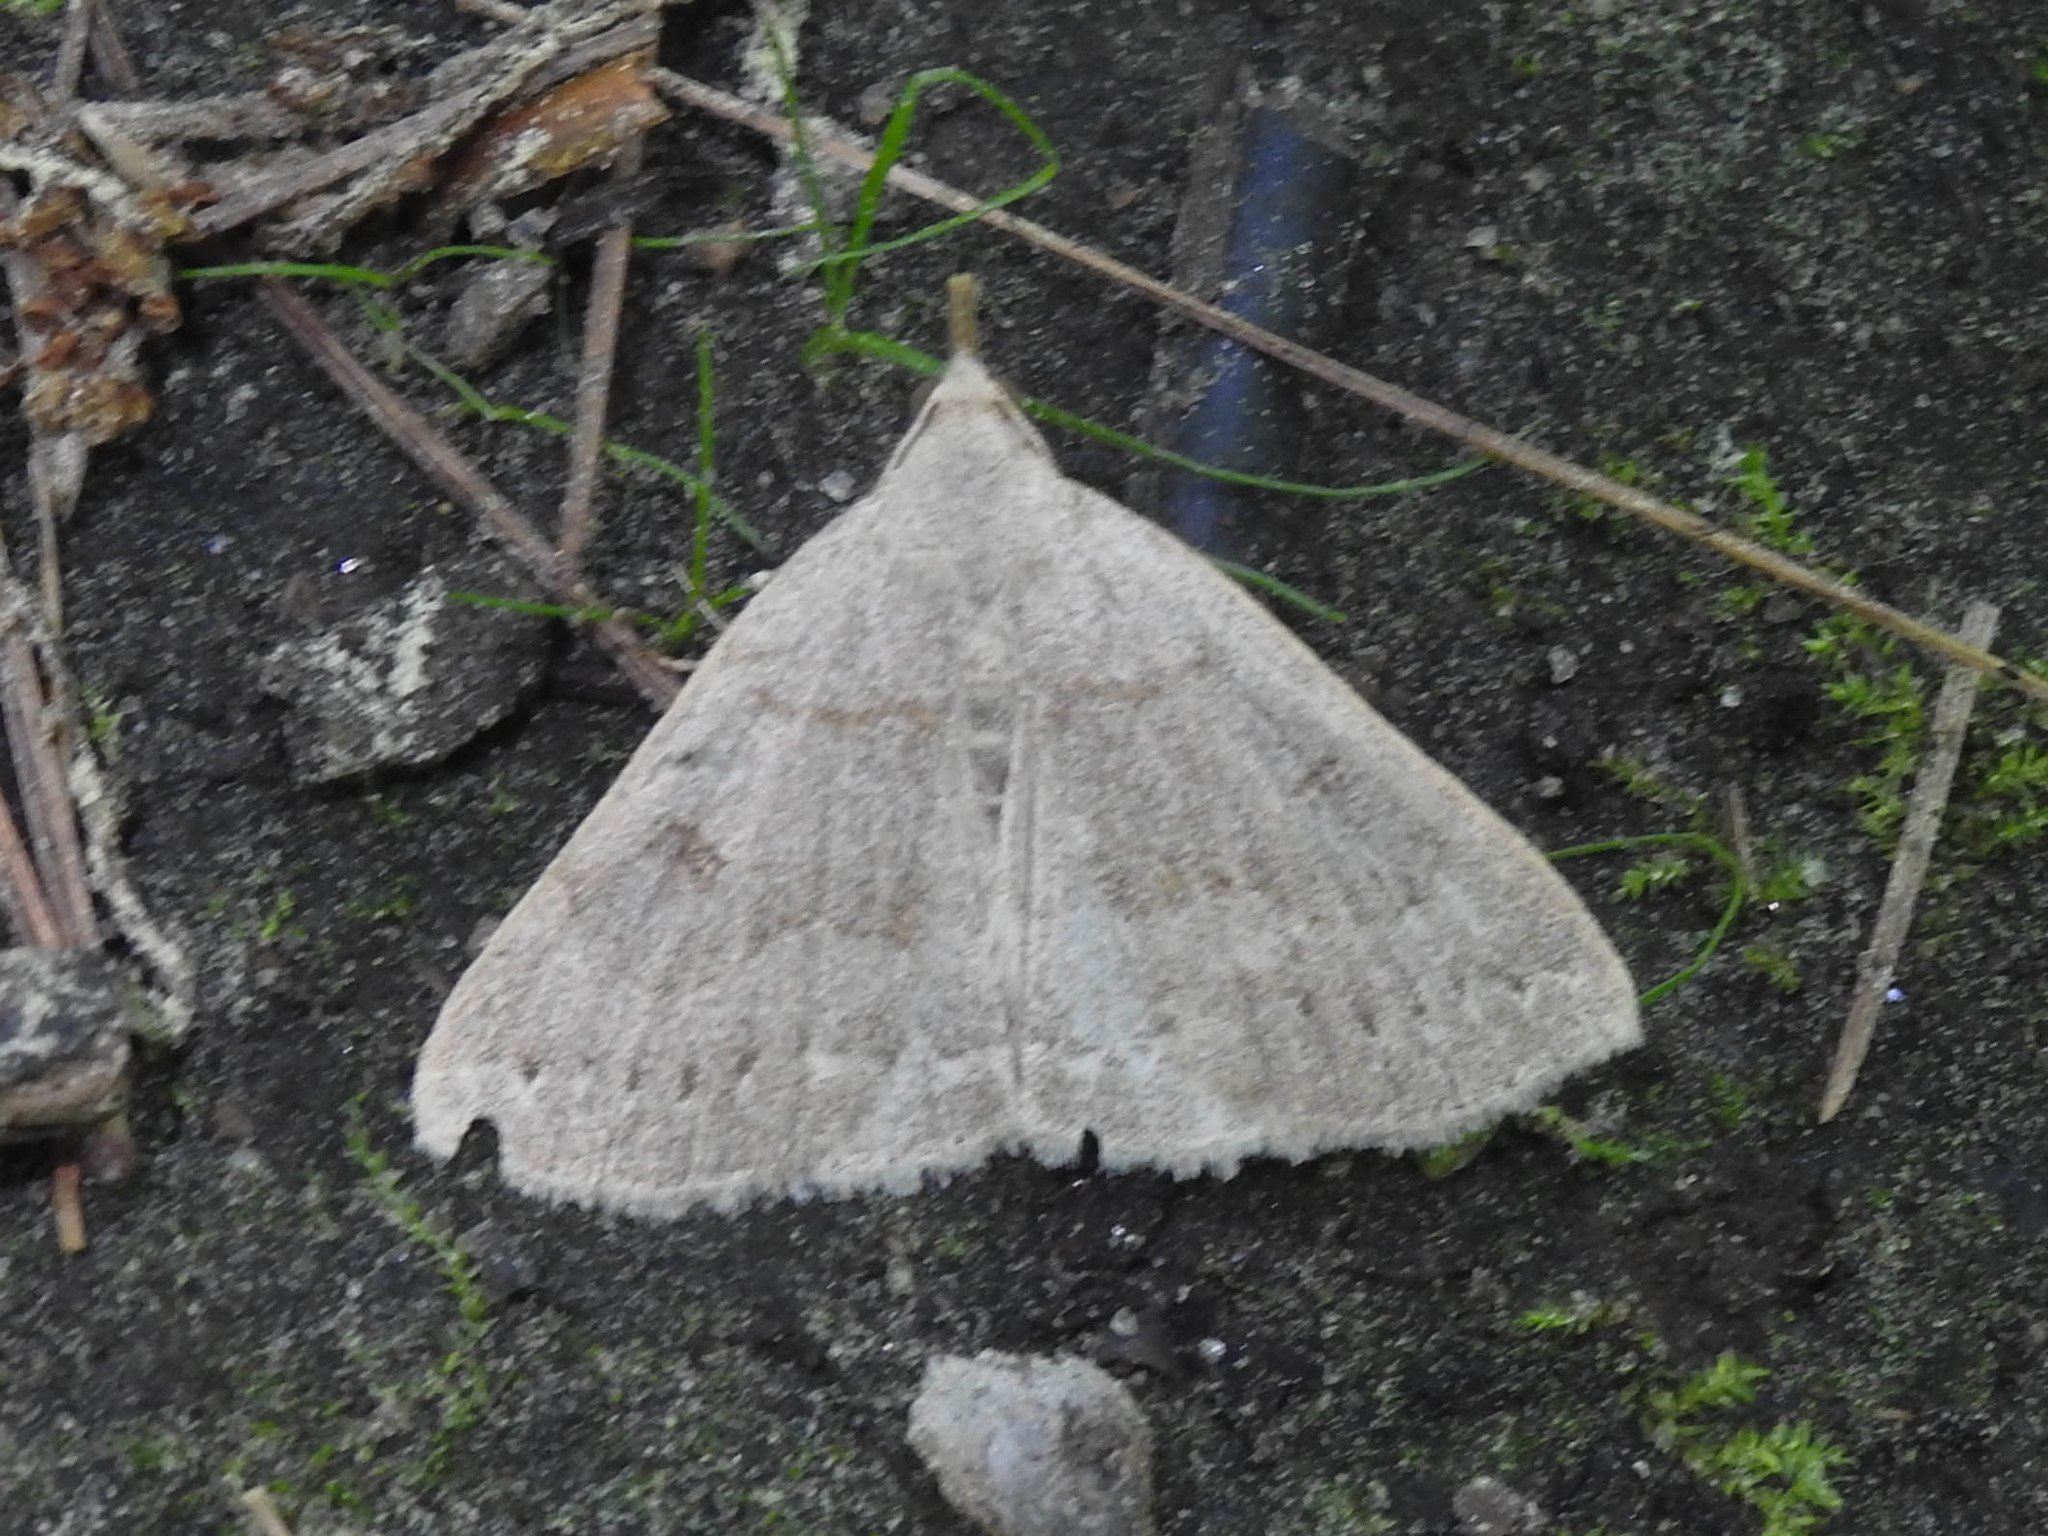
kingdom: Animalia
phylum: Arthropoda
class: Insecta
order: Lepidoptera
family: Erebidae
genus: Macrochilo
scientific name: Macrochilo morbidalis
